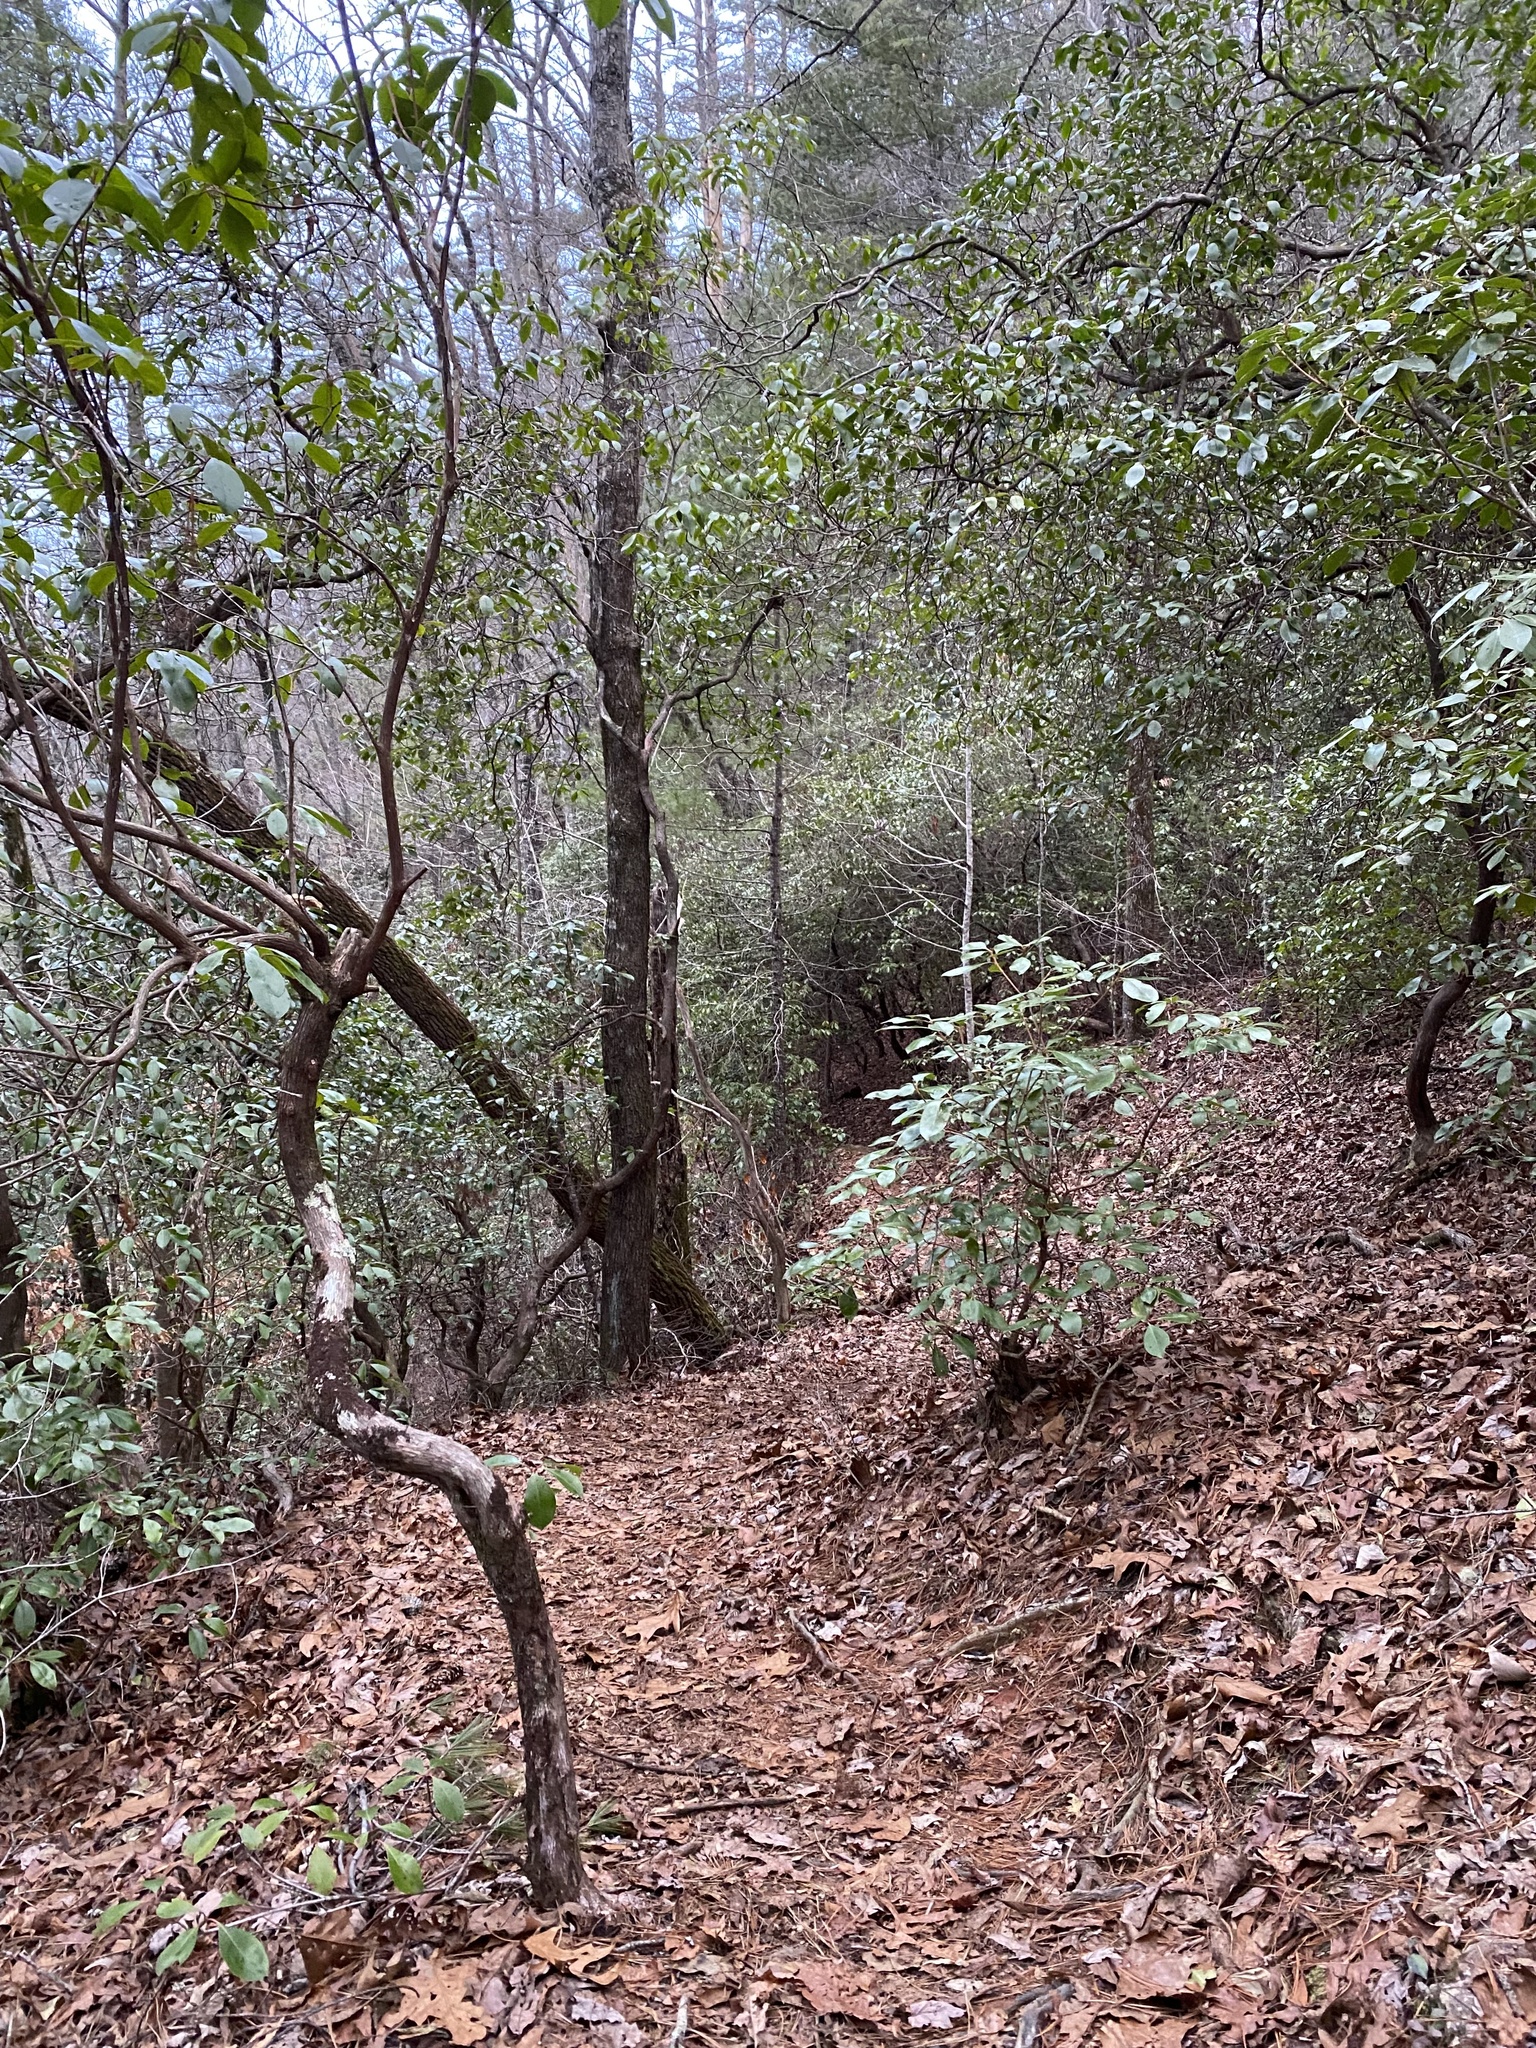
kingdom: Plantae
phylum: Tracheophyta
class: Magnoliopsida
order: Ericales
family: Ericaceae
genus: Rhododendron
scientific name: Rhododendron maximum
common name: Great rhododendron
